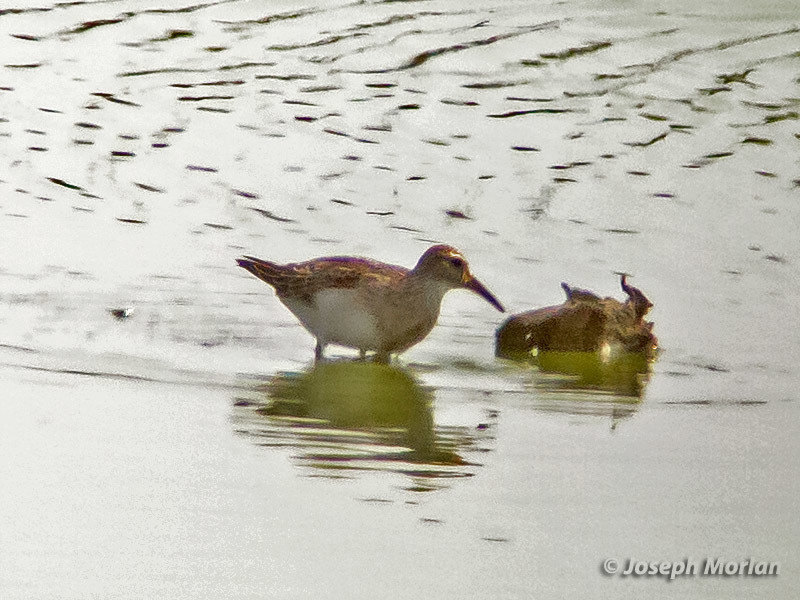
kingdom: Animalia
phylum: Chordata
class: Aves
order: Charadriiformes
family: Scolopacidae
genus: Calidris
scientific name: Calidris melanotos
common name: Pectoral sandpiper
